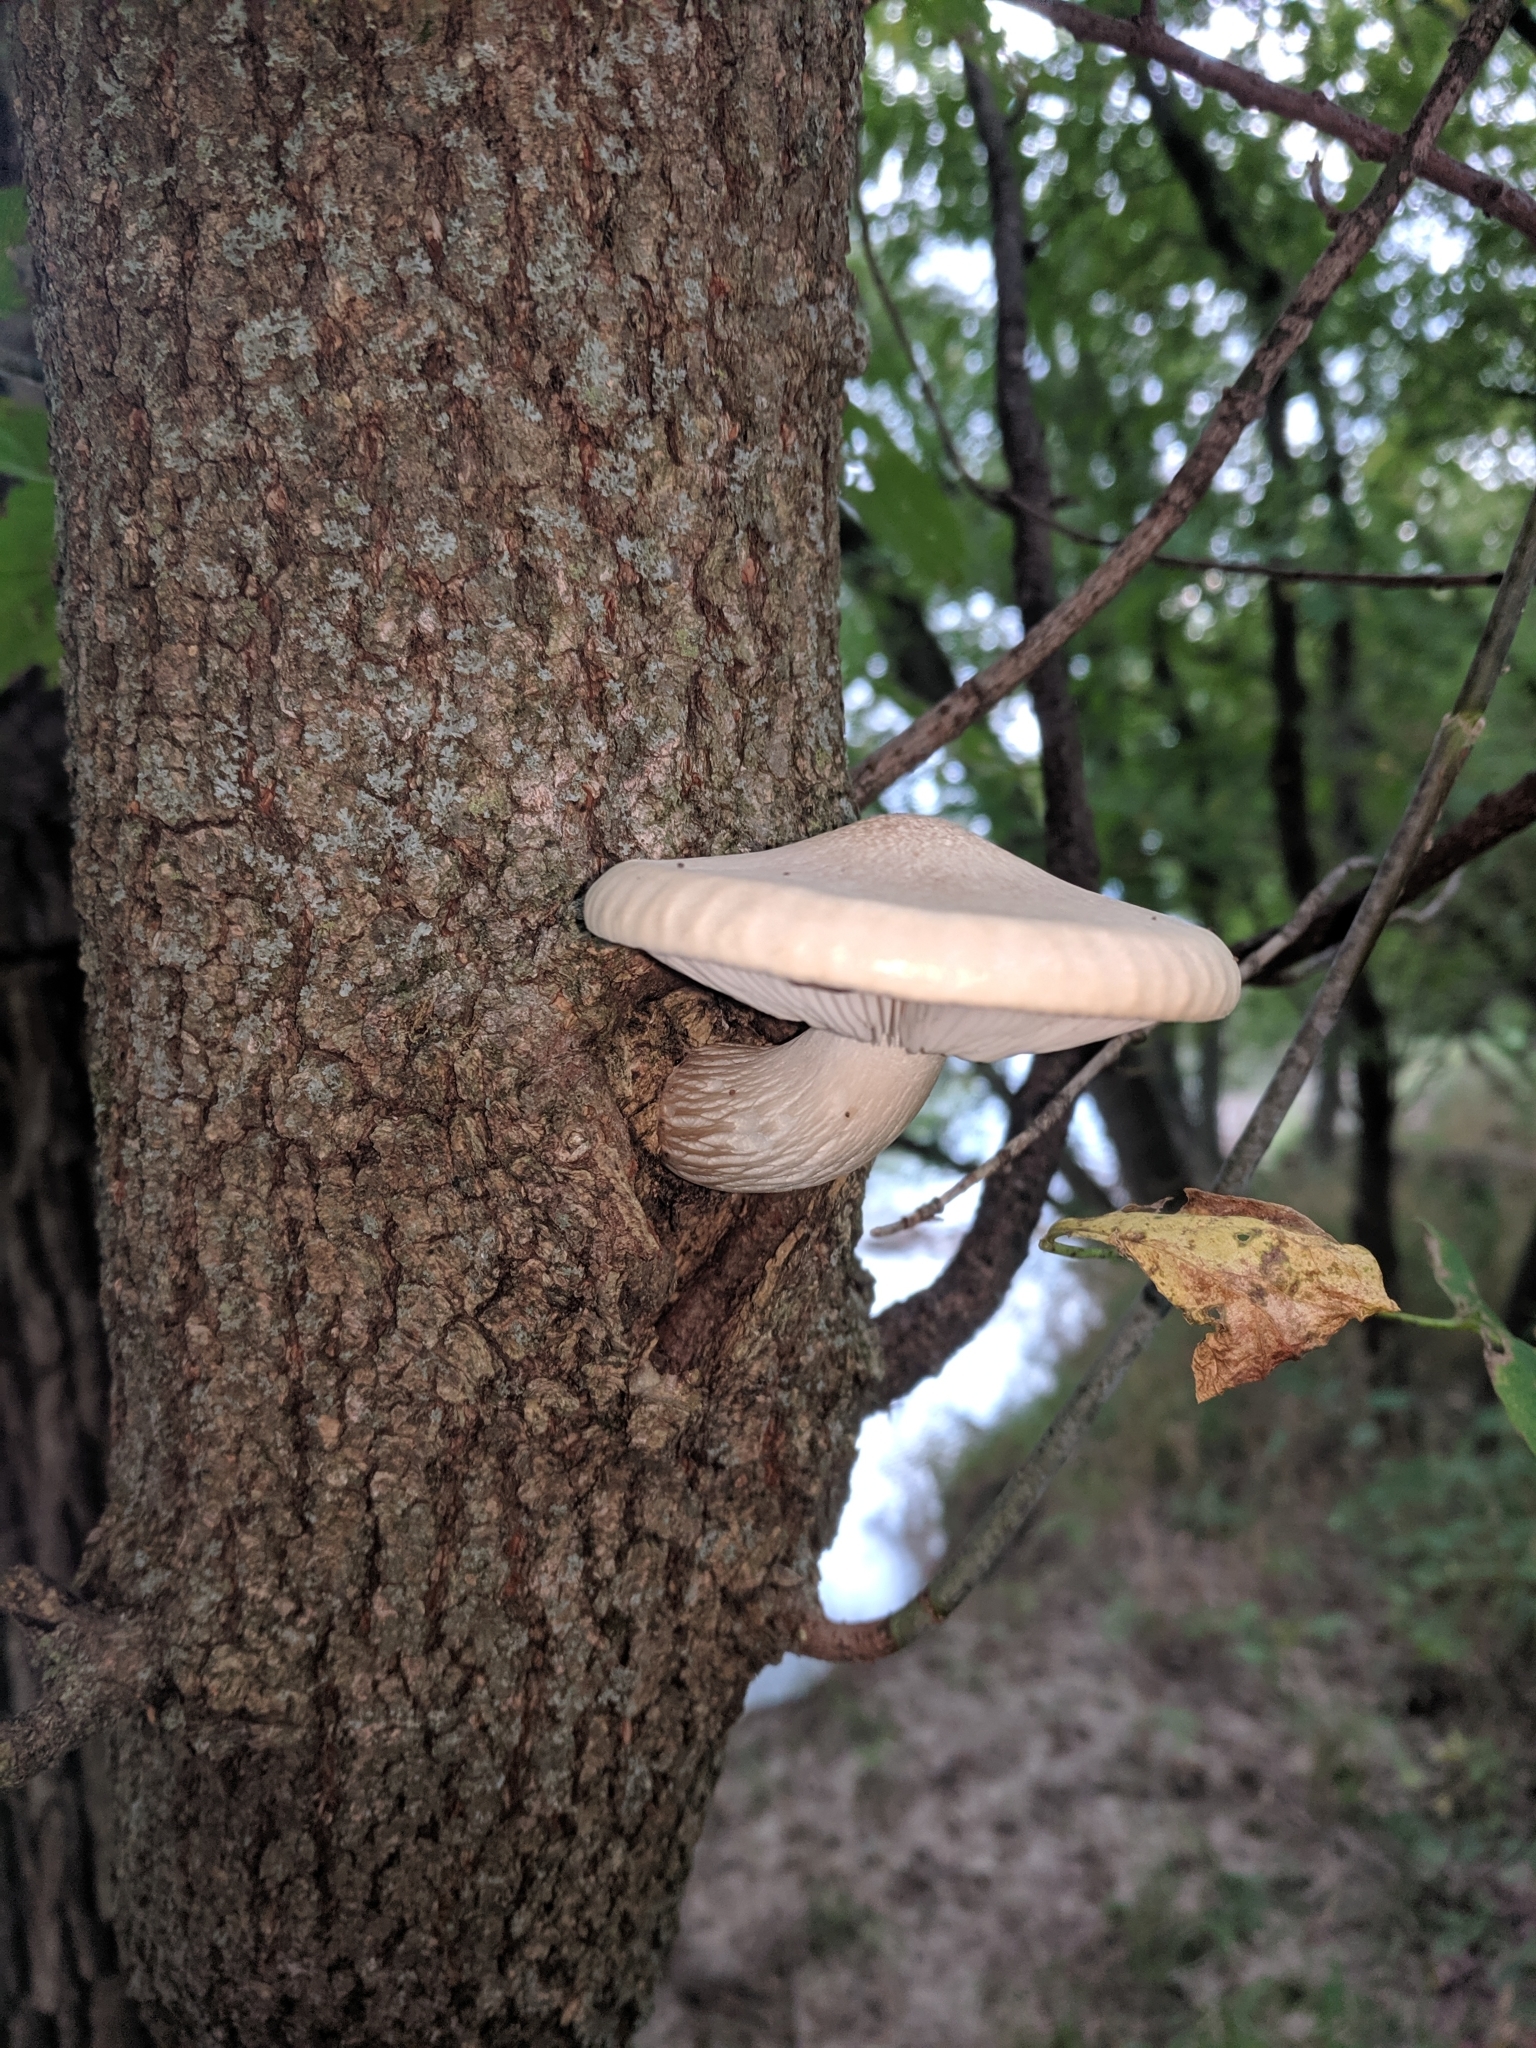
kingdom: Fungi
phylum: Basidiomycota
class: Agaricomycetes
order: Agaricales
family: Lyophyllaceae
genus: Hypsizygus
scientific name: Hypsizygus ulmarius
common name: Elm leech
